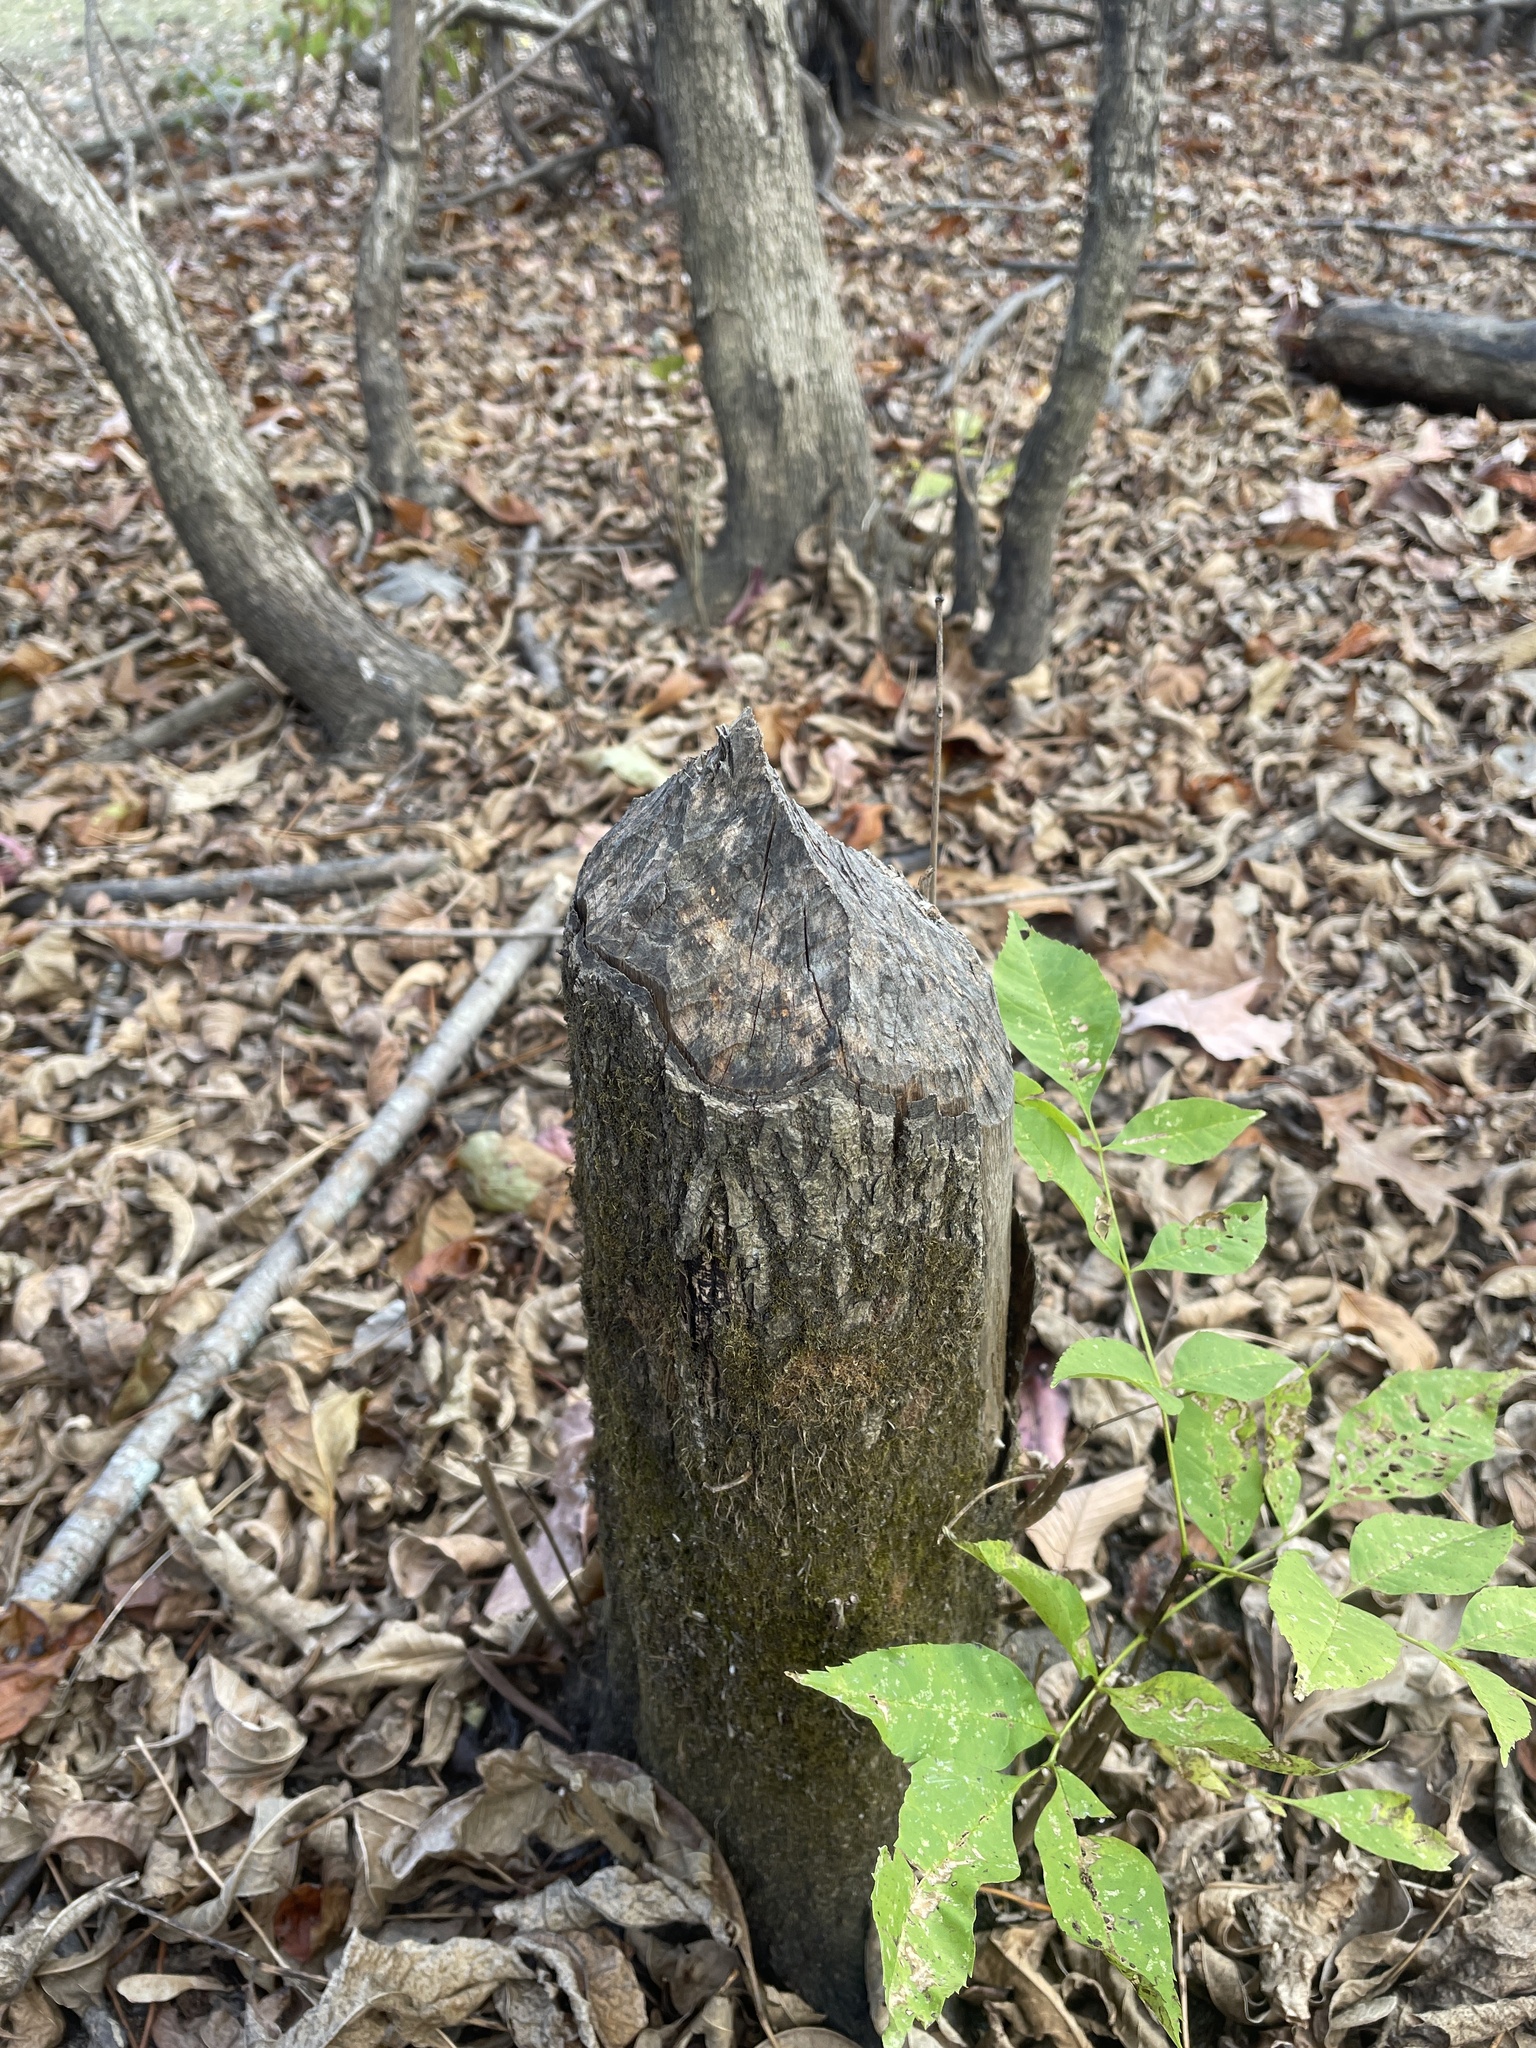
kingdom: Animalia
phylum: Chordata
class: Mammalia
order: Rodentia
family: Castoridae
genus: Castor
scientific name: Castor canadensis
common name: American beaver
